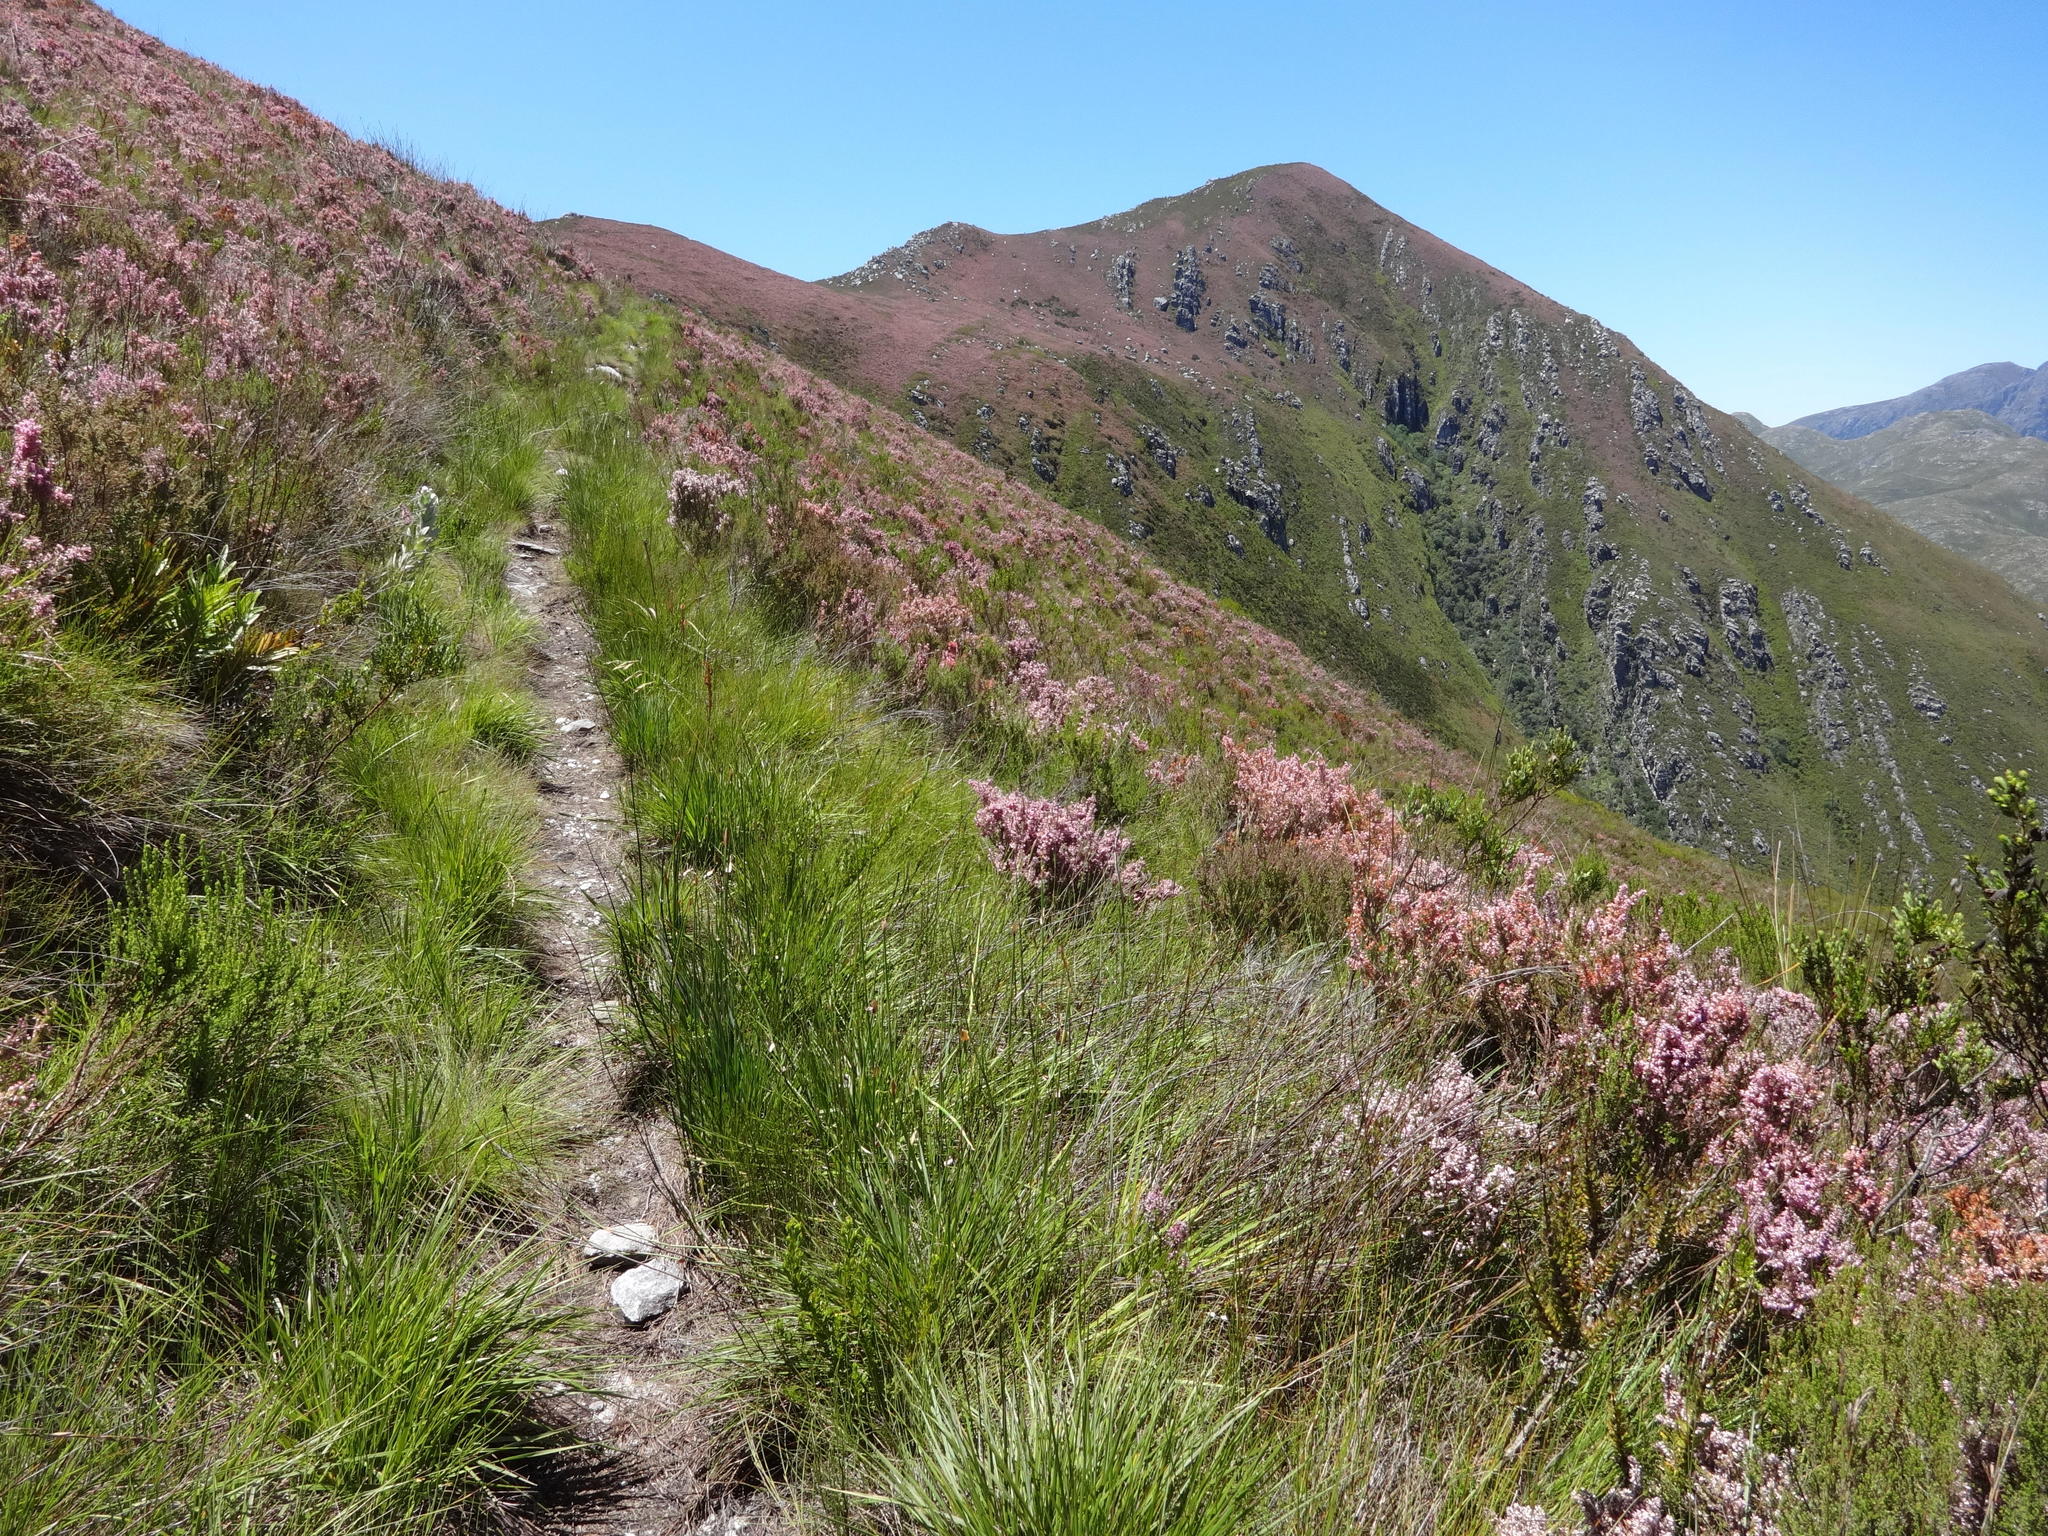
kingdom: Plantae
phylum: Tracheophyta
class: Magnoliopsida
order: Ericales
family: Ericaceae
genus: Erica
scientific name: Erica longimontana
